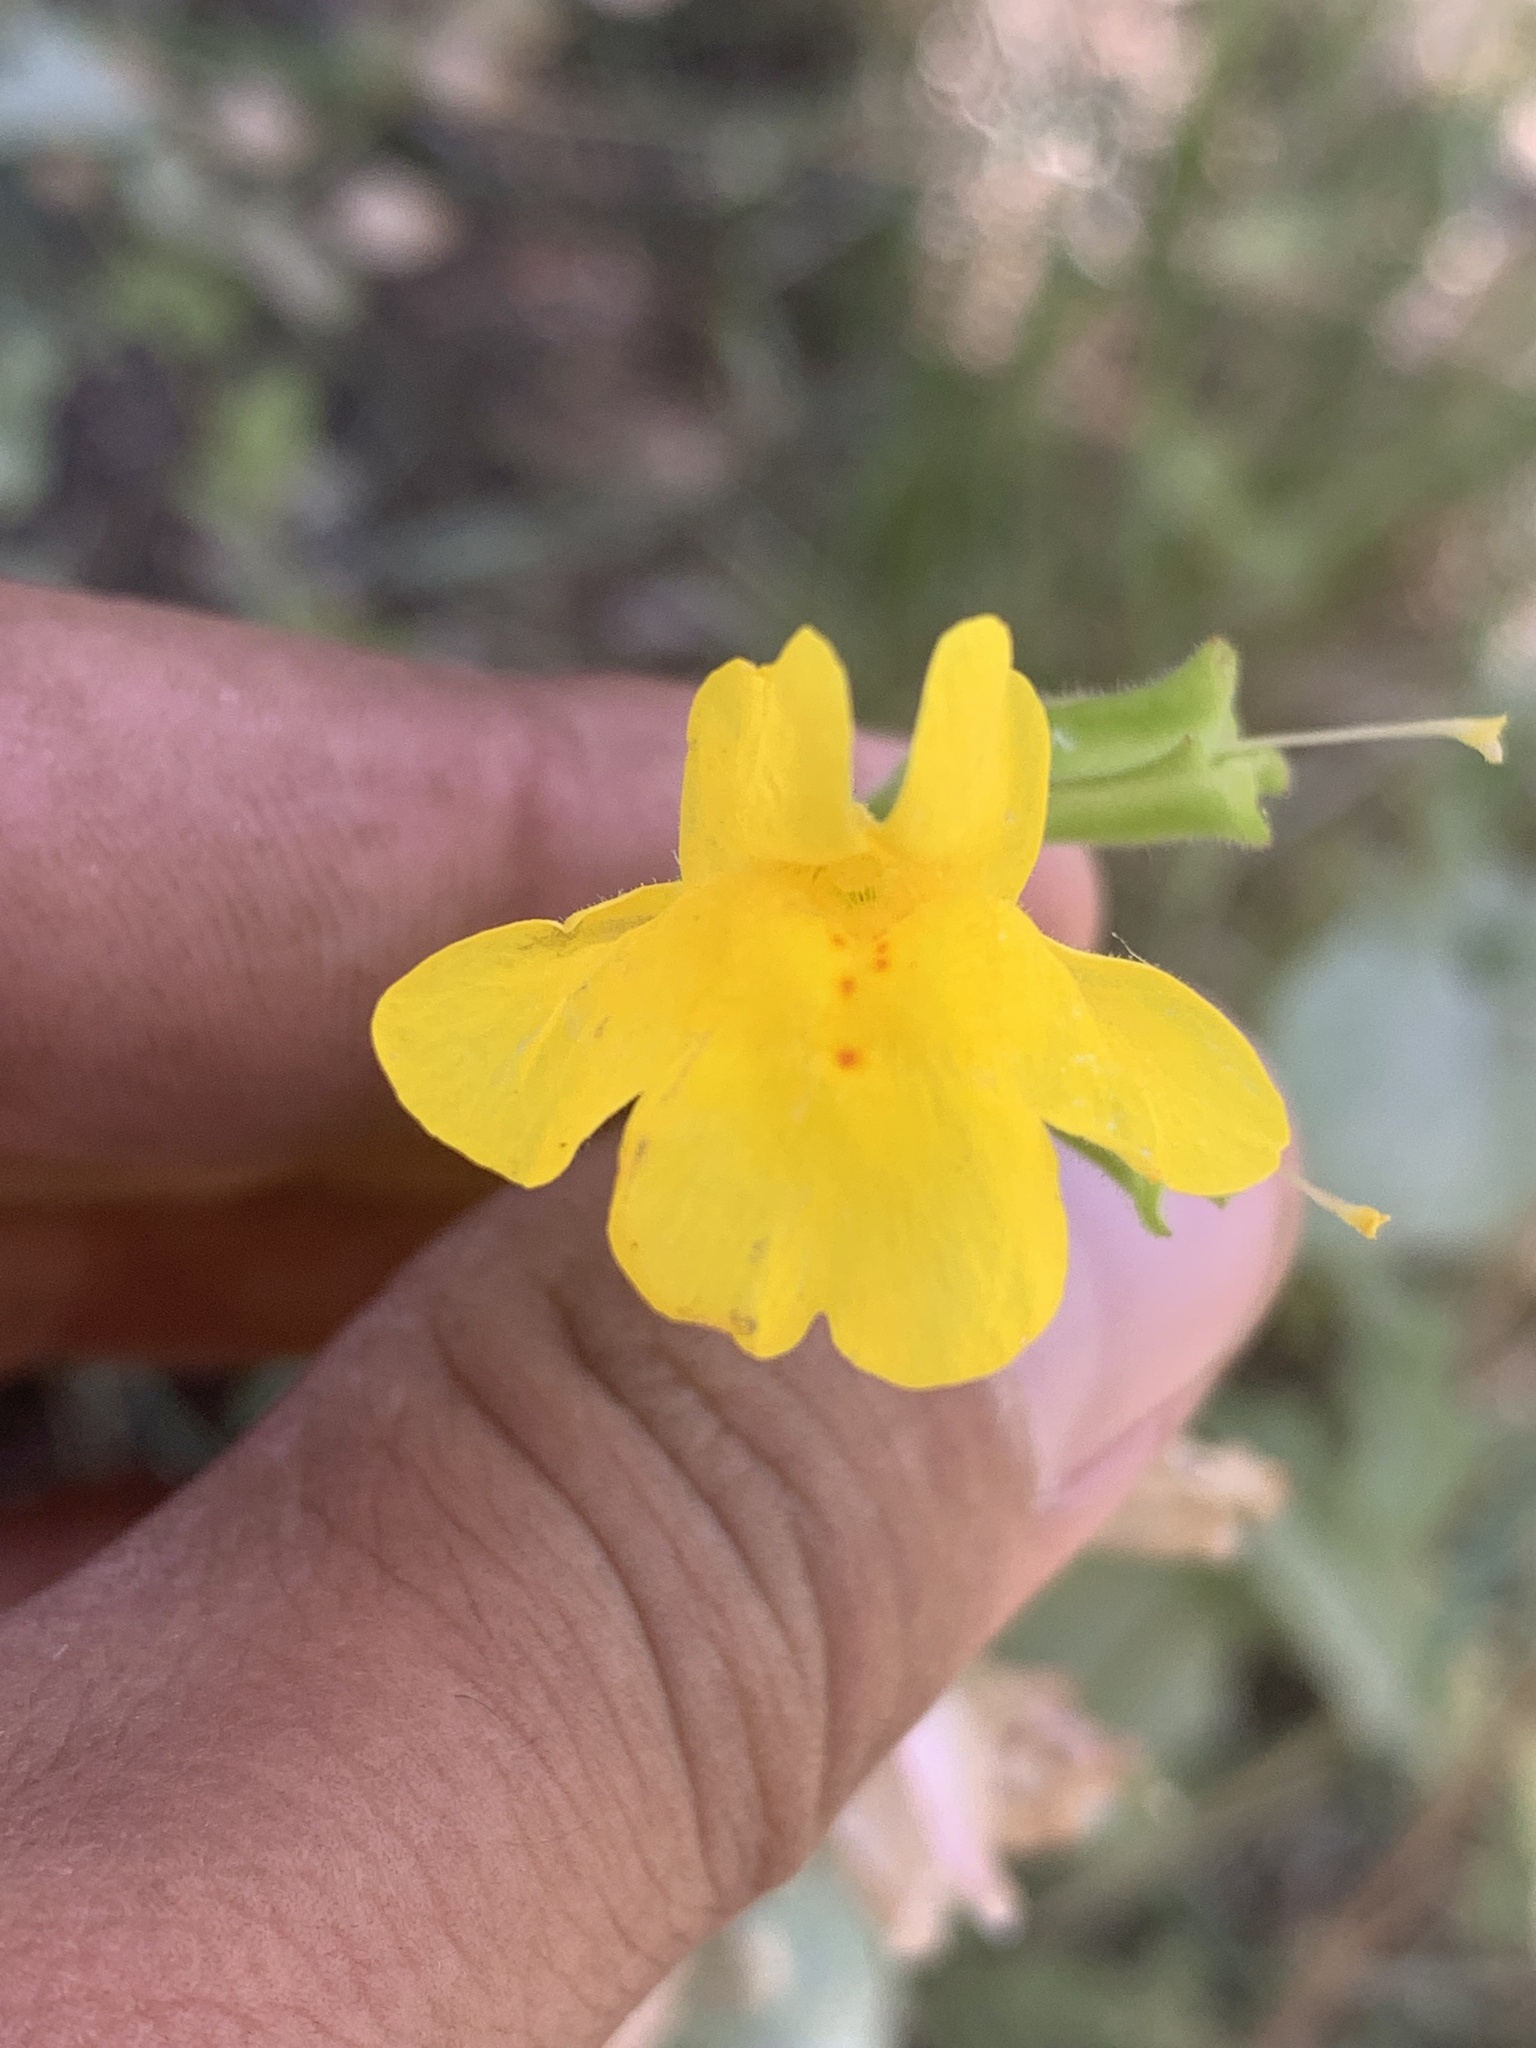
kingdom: Plantae
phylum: Tracheophyta
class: Magnoliopsida
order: Lamiales
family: Phrymaceae
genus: Erythranthe
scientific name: Erythranthe guttata
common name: Monkeyflower
